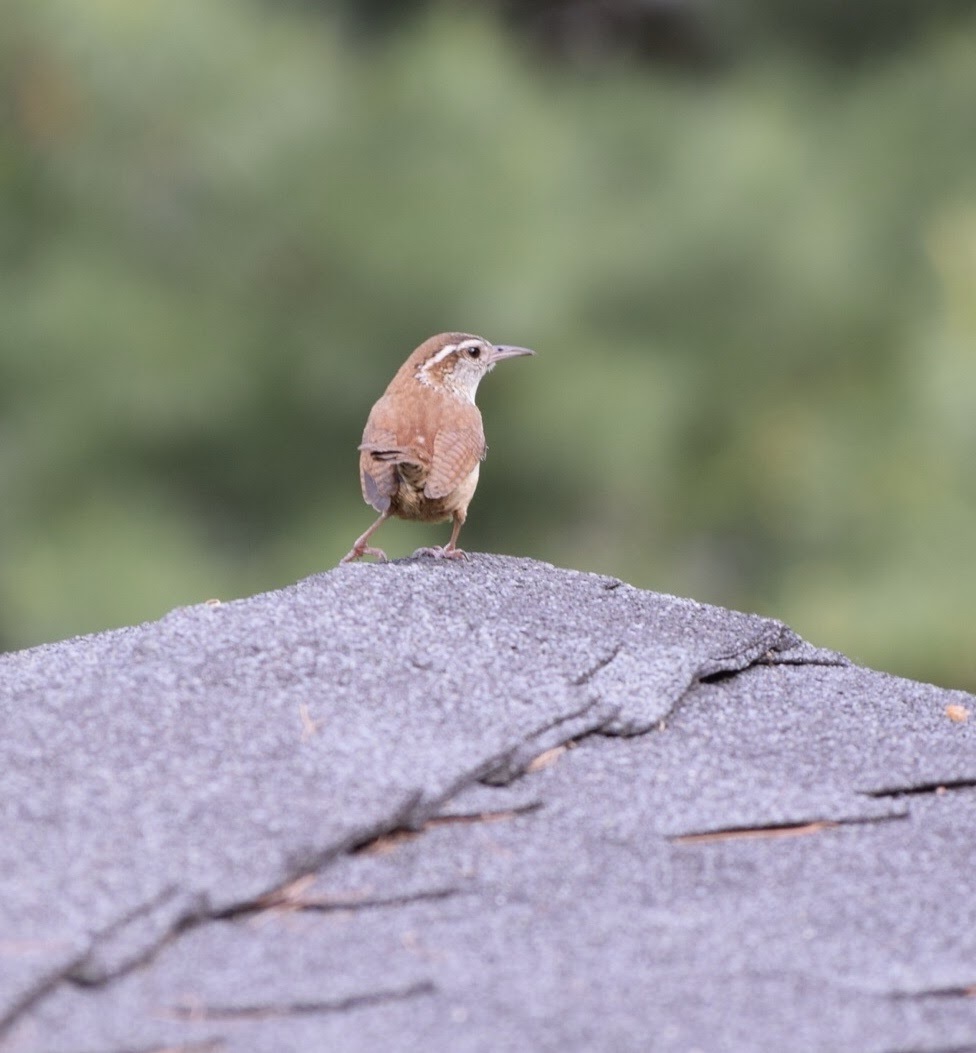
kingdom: Animalia
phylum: Chordata
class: Aves
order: Passeriformes
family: Troglodytidae
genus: Thryothorus
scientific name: Thryothorus ludovicianus
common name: Carolina wren
